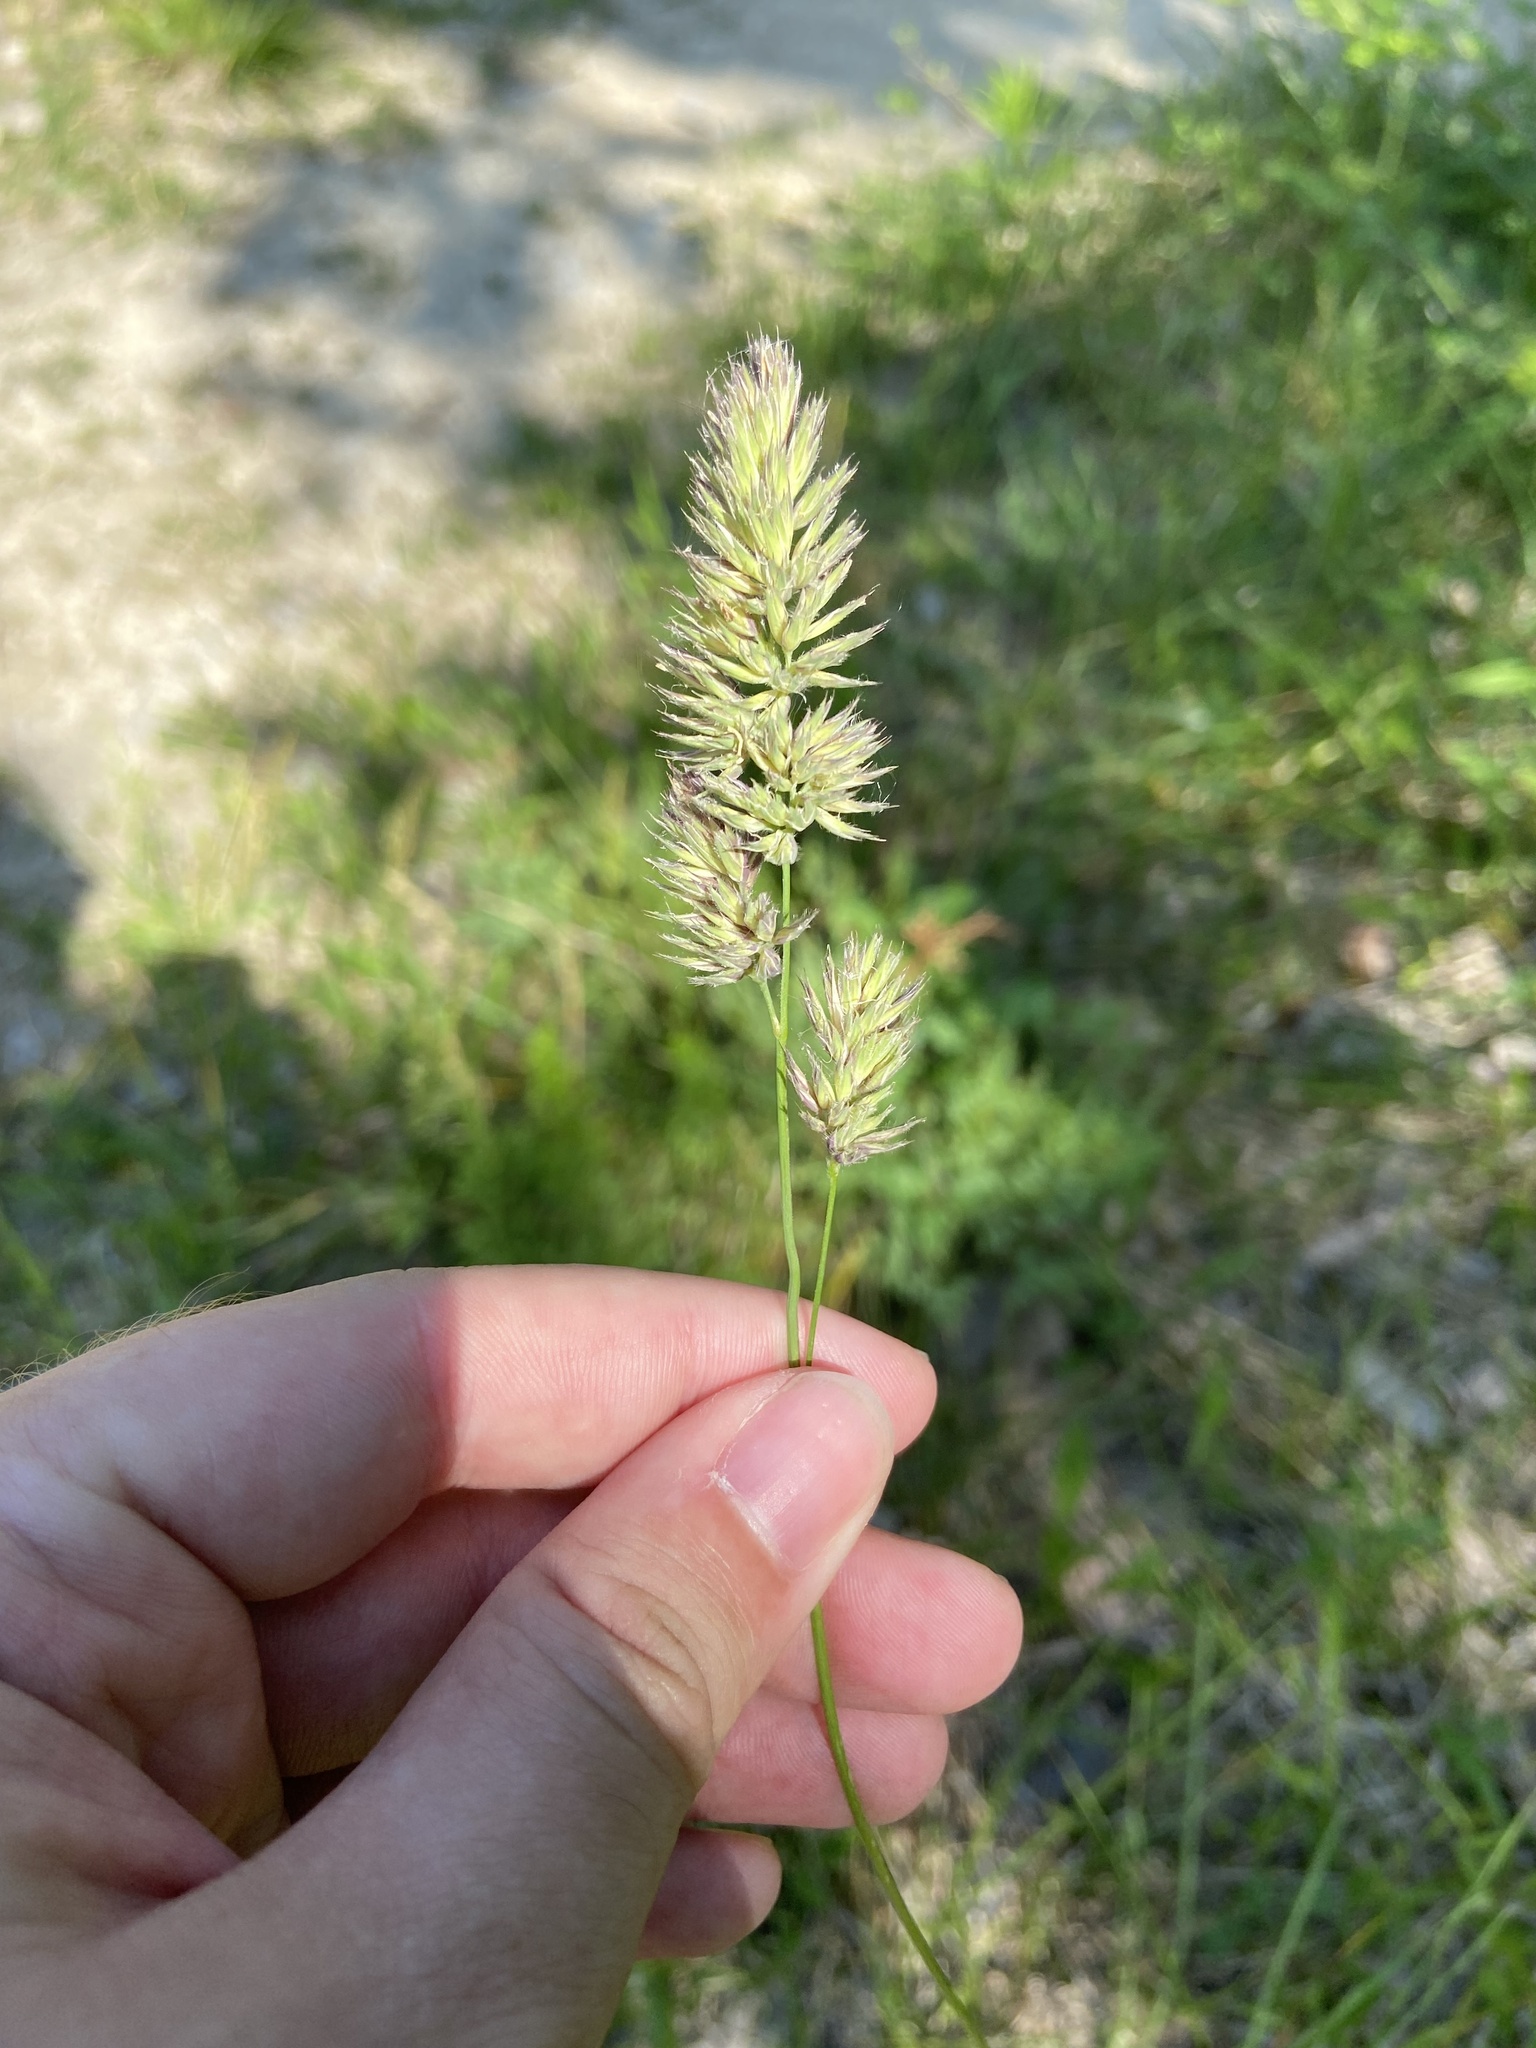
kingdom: Plantae
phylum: Tracheophyta
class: Liliopsida
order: Poales
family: Poaceae
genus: Dactylis
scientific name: Dactylis glomerata
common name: Orchardgrass
